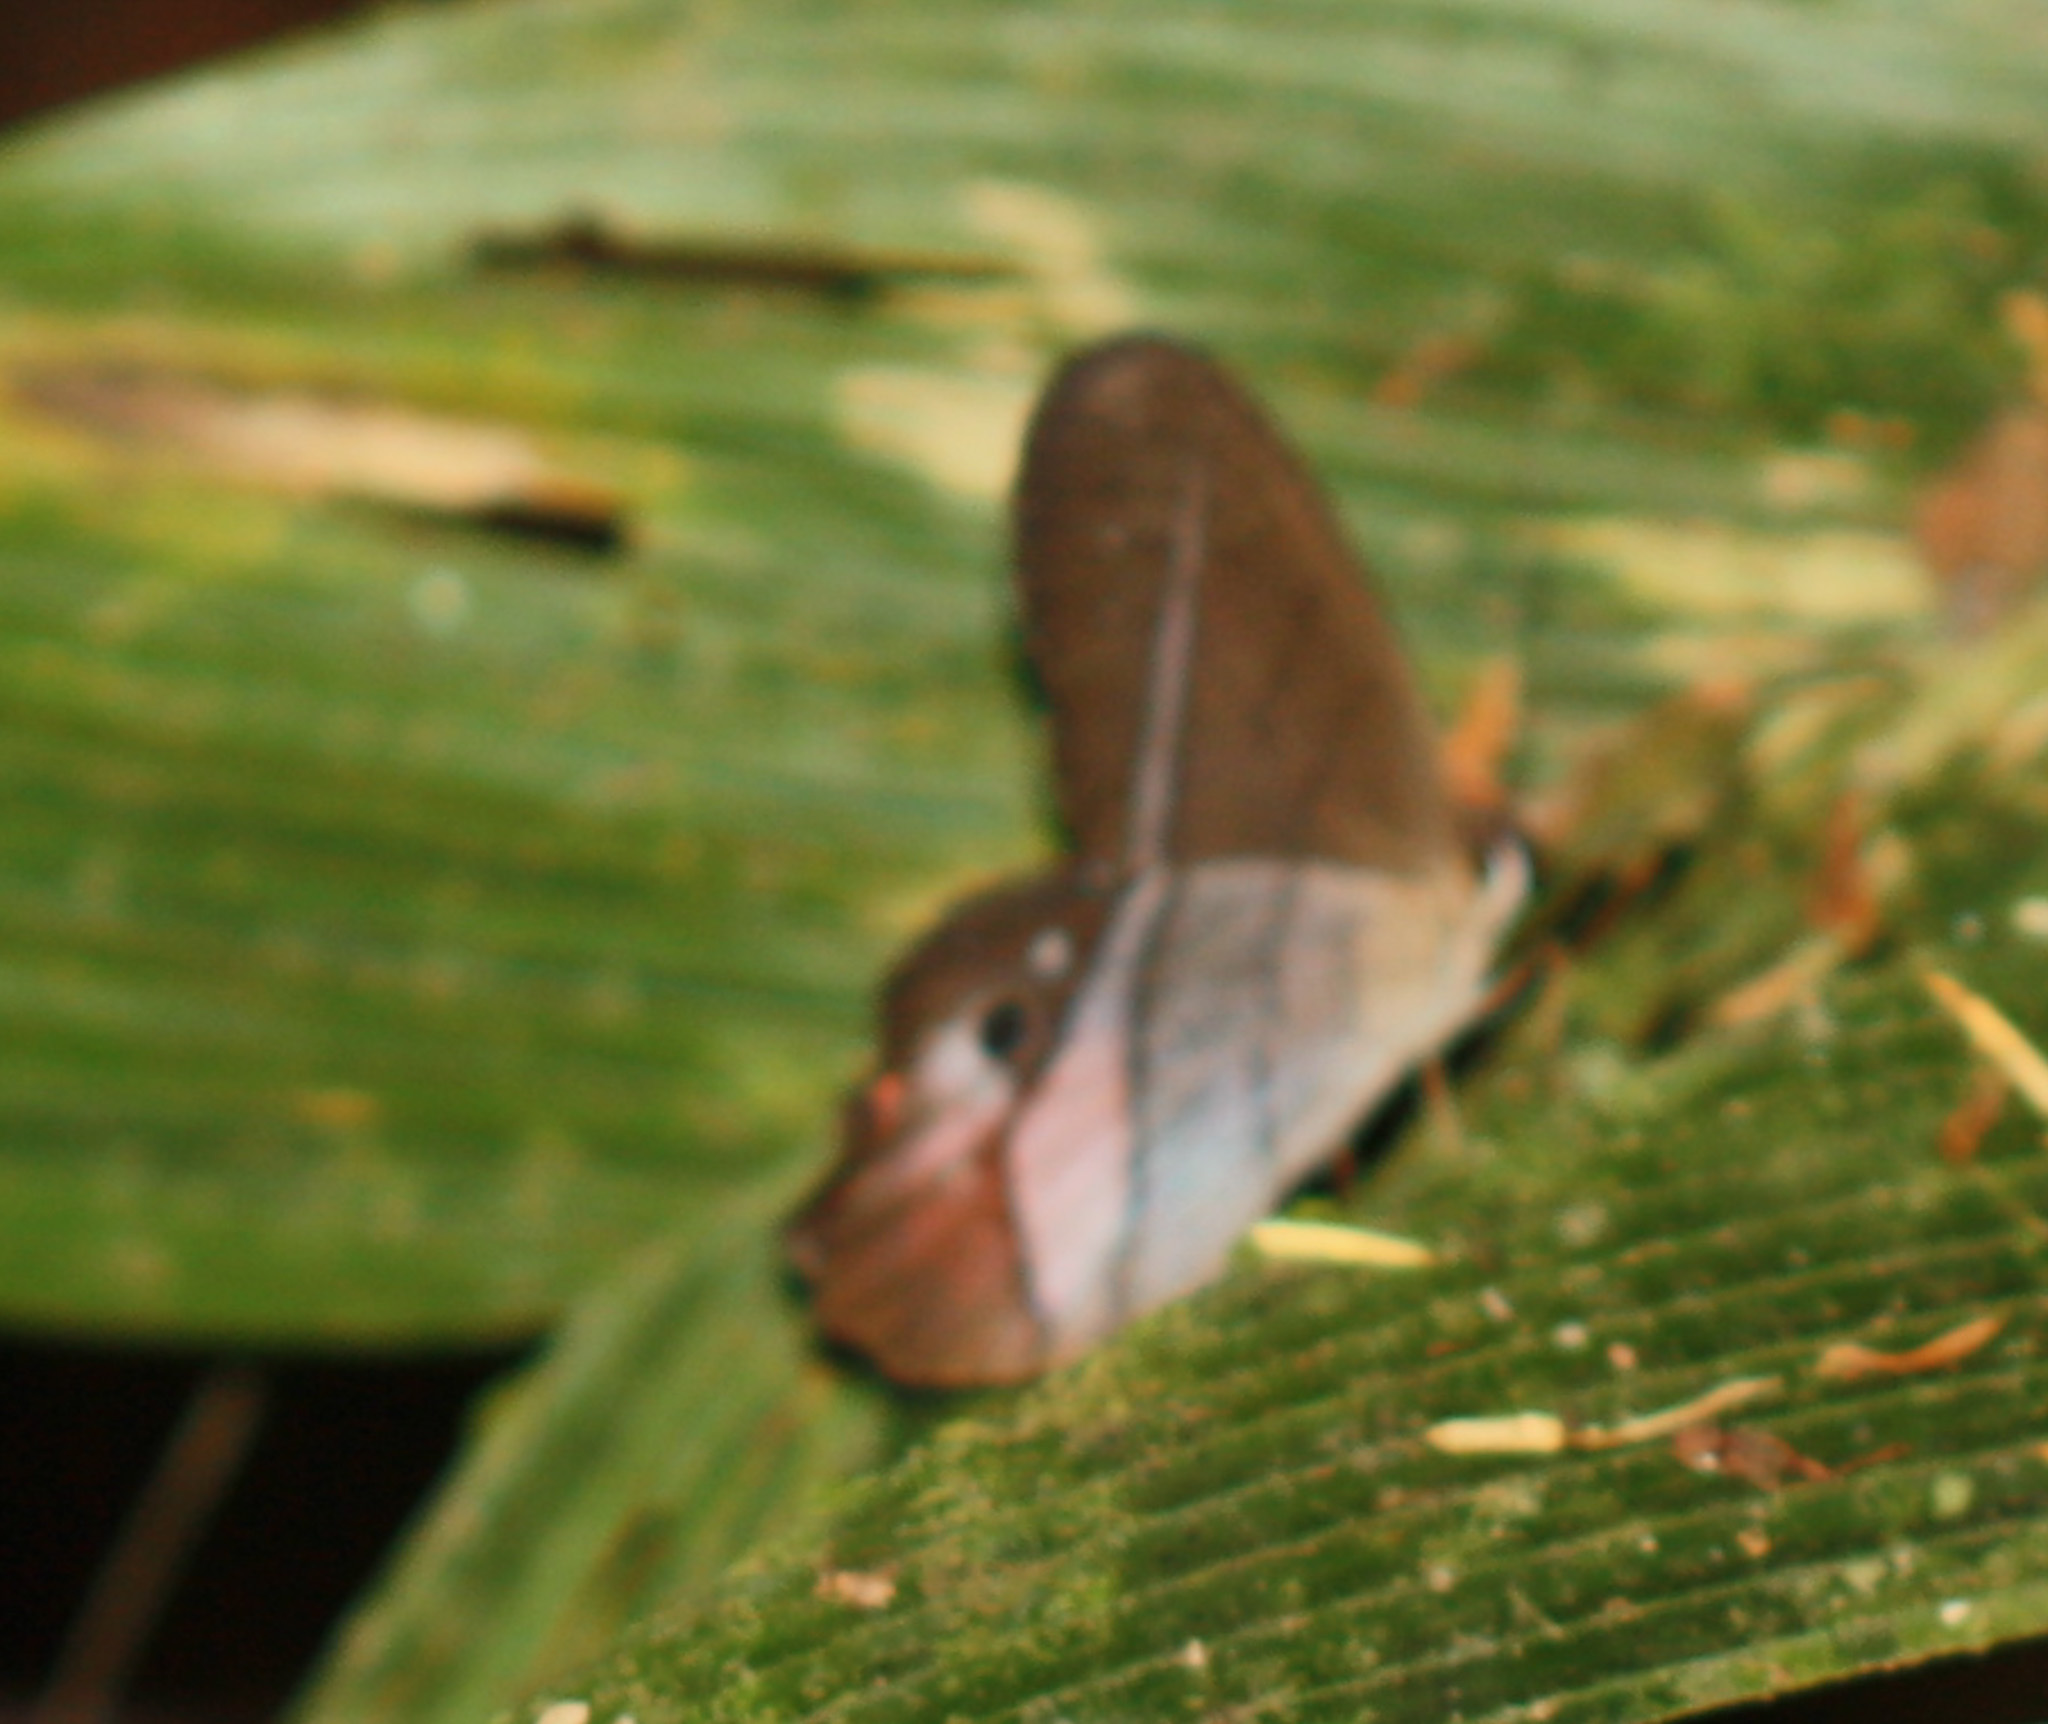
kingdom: Animalia
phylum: Arthropoda
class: Insecta
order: Lepidoptera
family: Nymphalidae
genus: Pierella
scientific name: Pierella helvina
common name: Red-washed satyr
